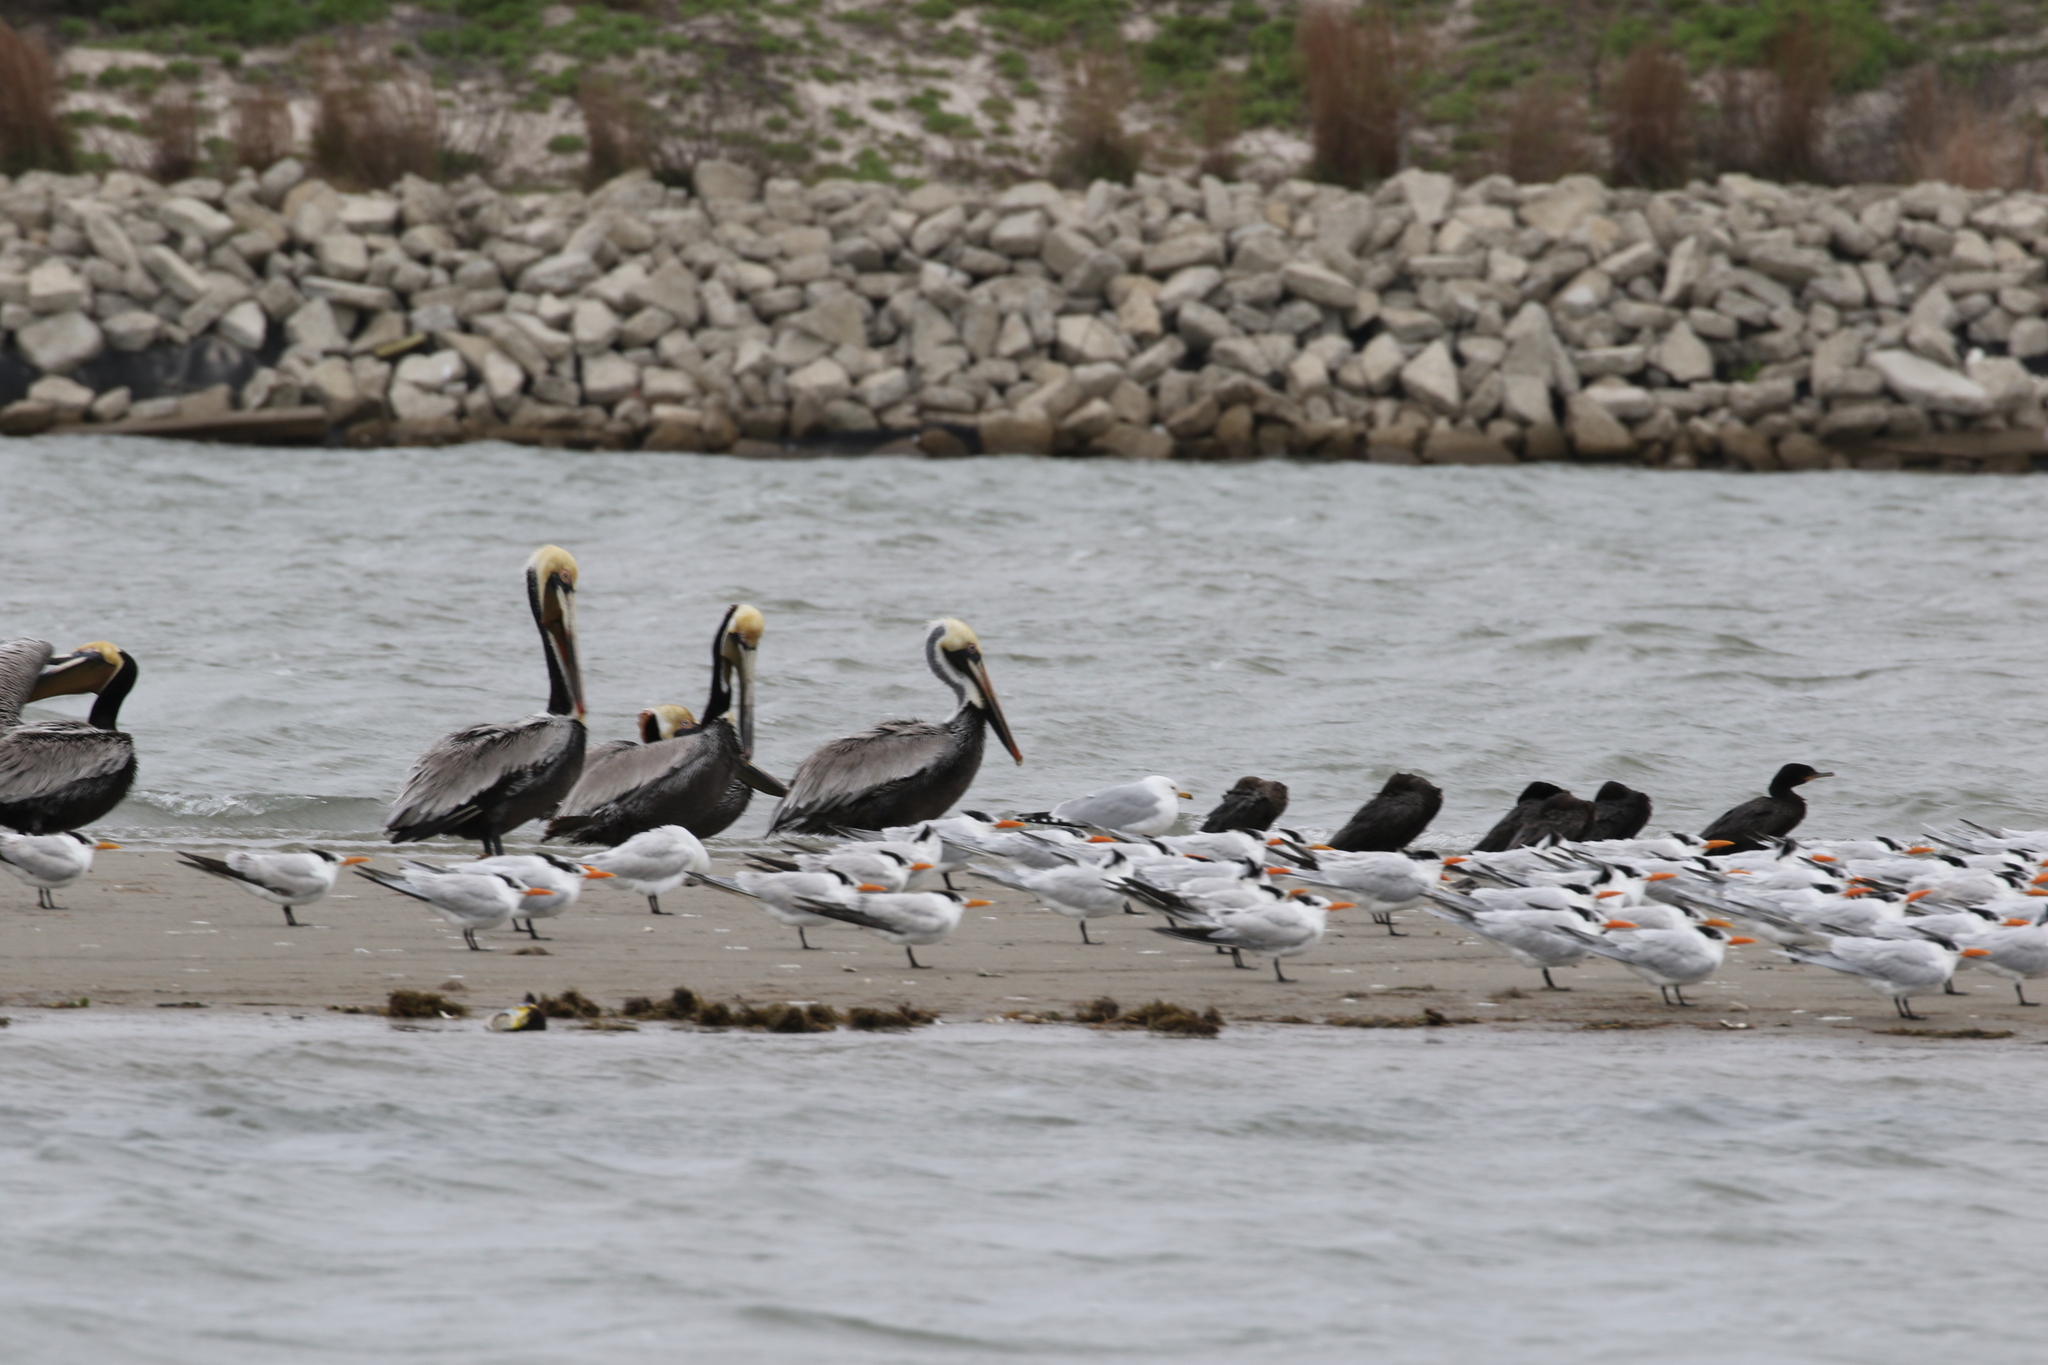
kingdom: Animalia
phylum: Chordata
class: Aves
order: Charadriiformes
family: Laridae
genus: Thalasseus
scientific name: Thalasseus maximus
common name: Royal tern
